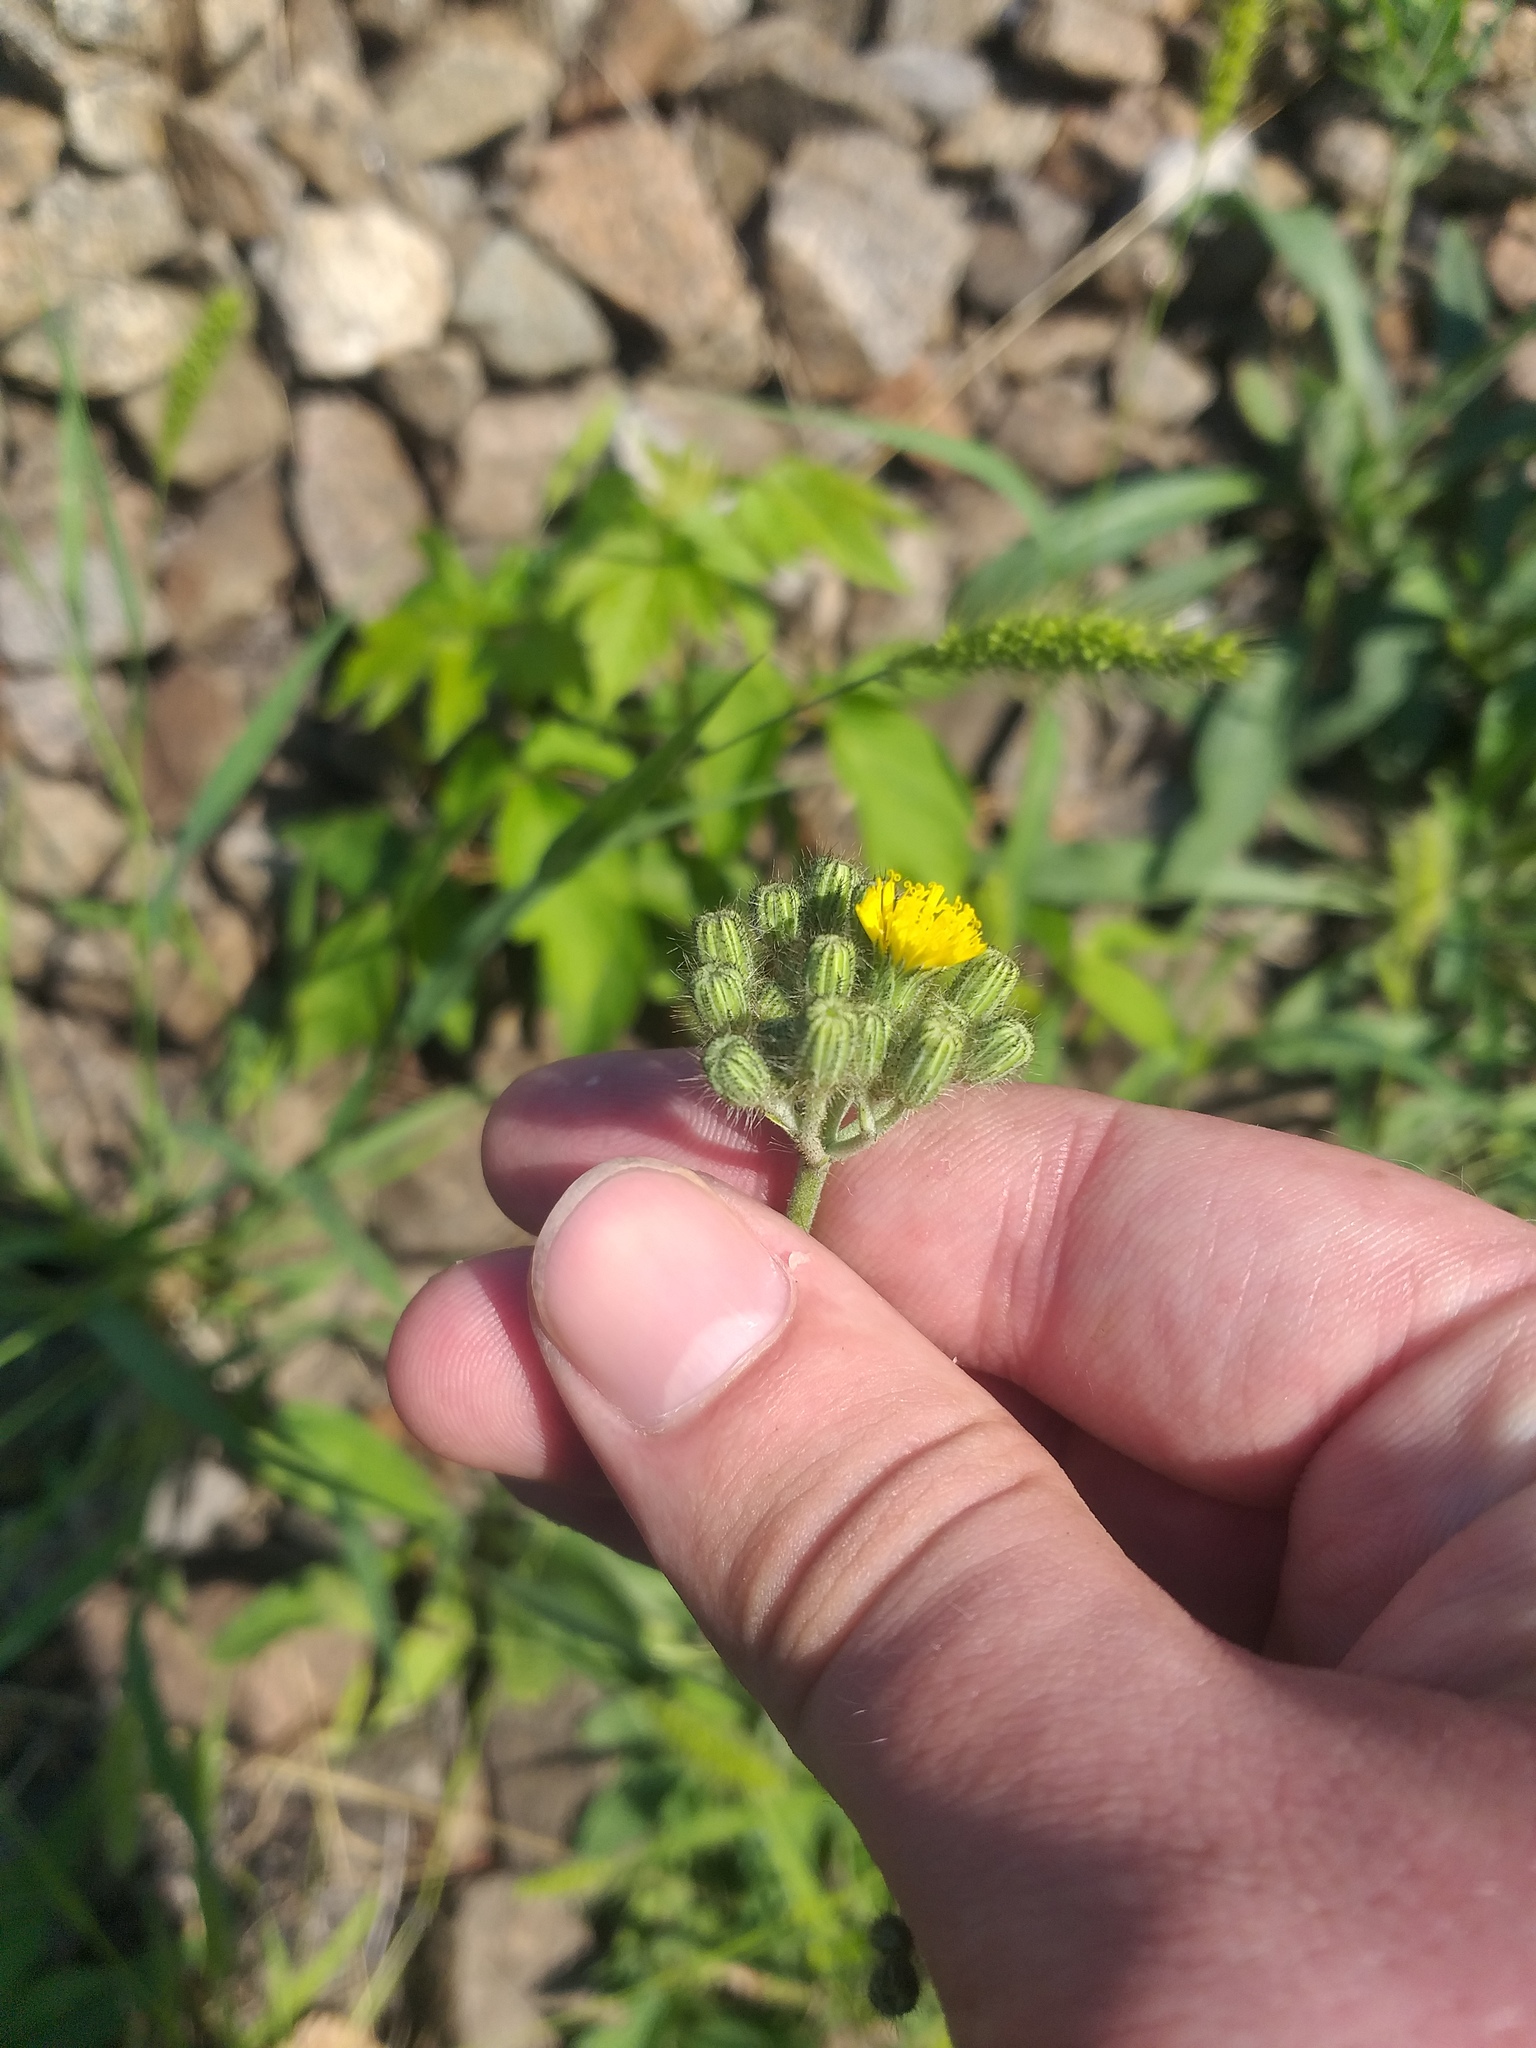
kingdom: Plantae
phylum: Tracheophyta
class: Magnoliopsida
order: Asterales
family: Asteraceae
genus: Pilosella
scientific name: Pilosella
